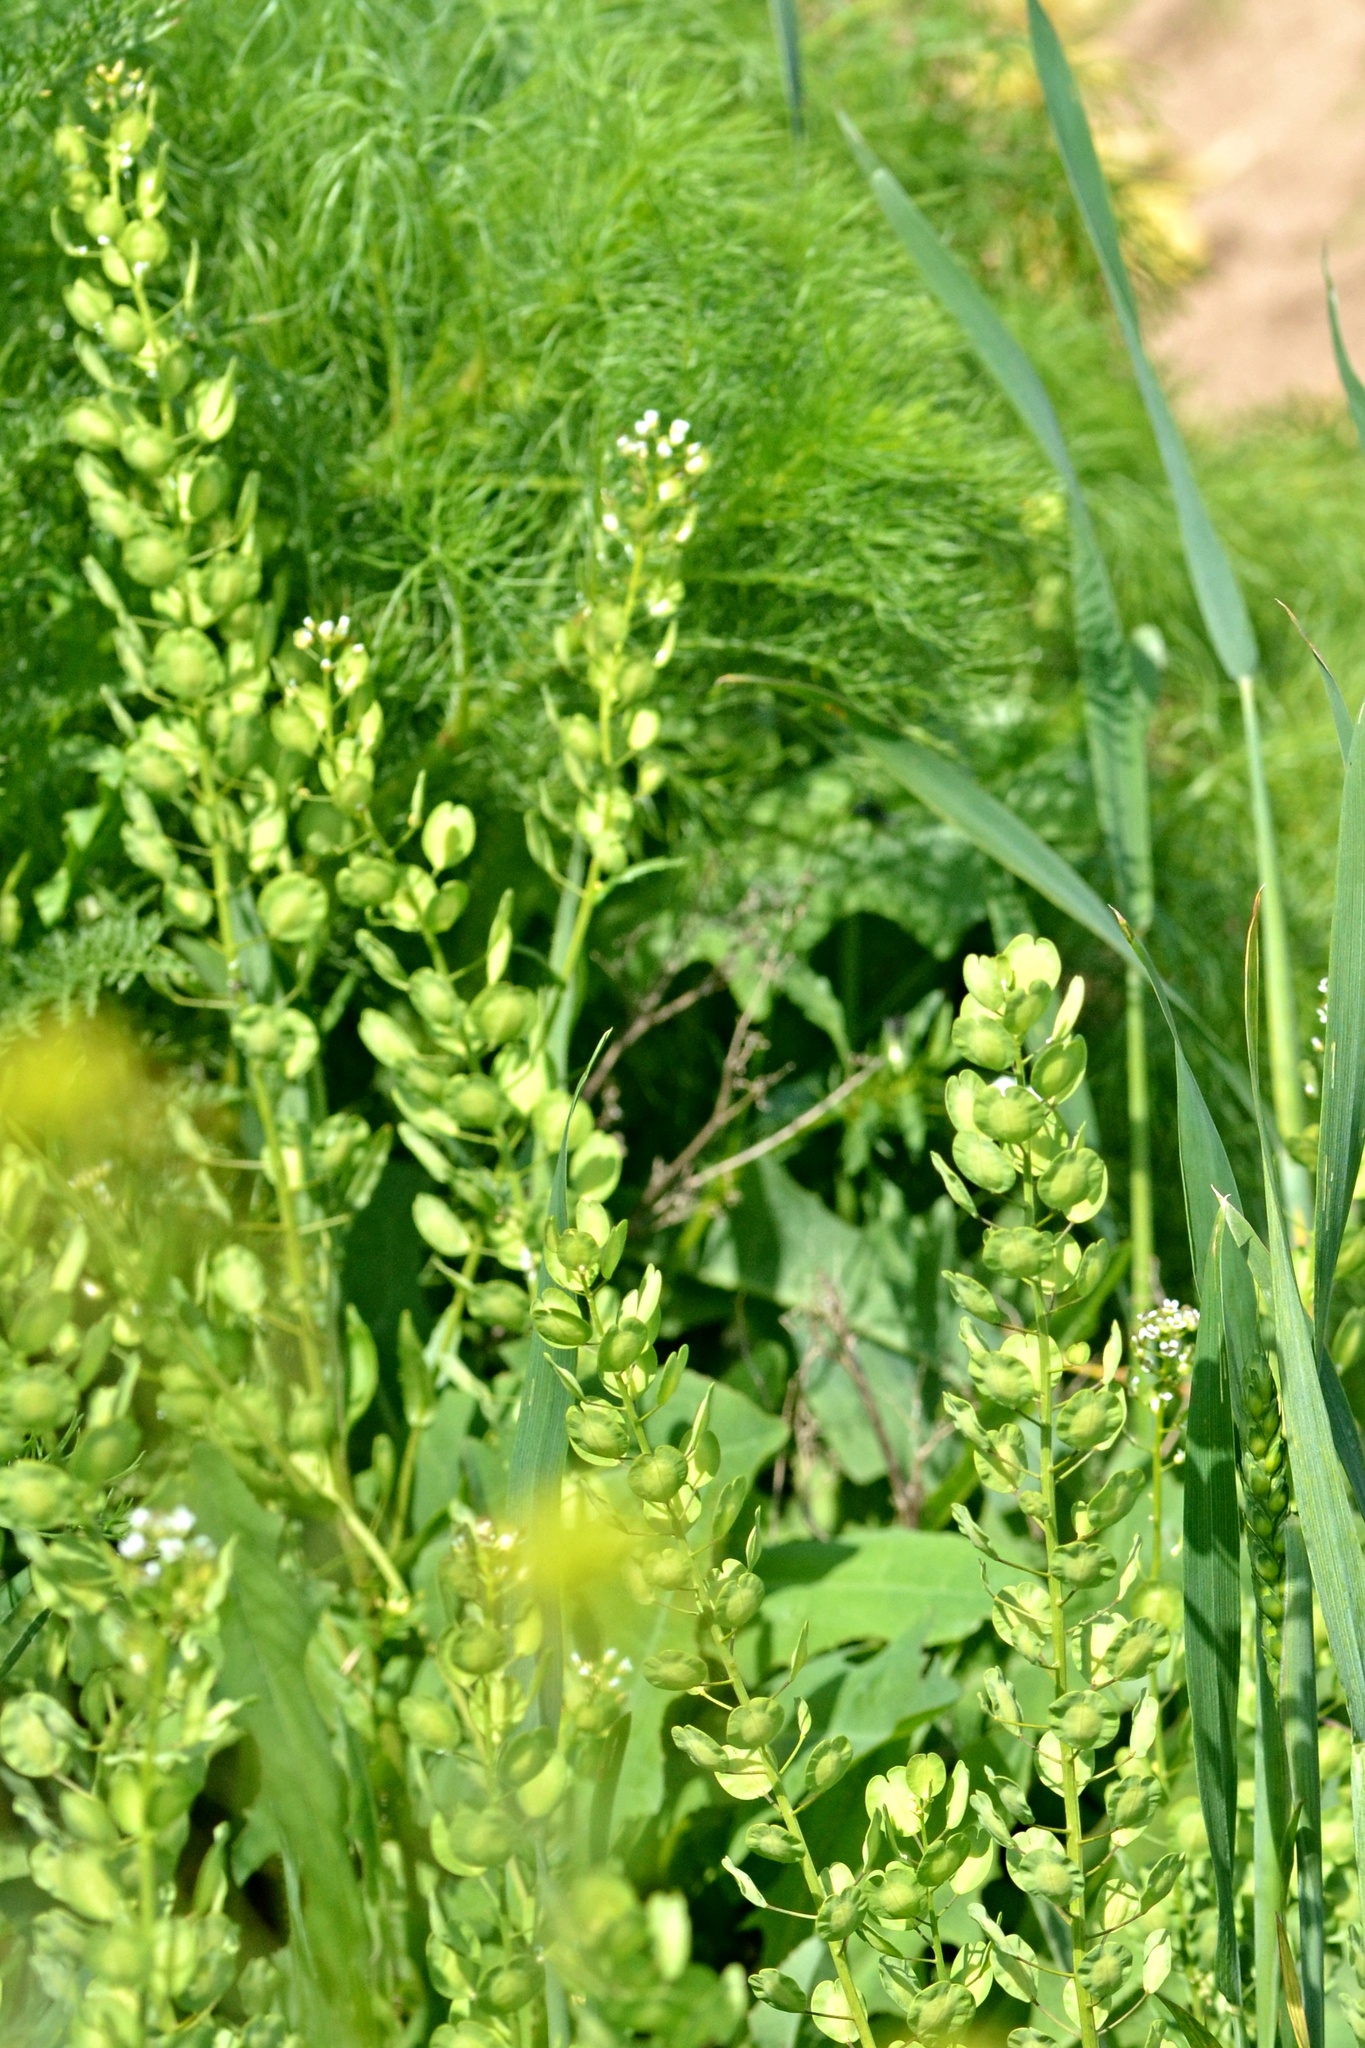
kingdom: Plantae
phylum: Tracheophyta
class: Magnoliopsida
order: Brassicales
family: Brassicaceae
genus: Thlaspi
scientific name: Thlaspi arvense
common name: Field pennycress
